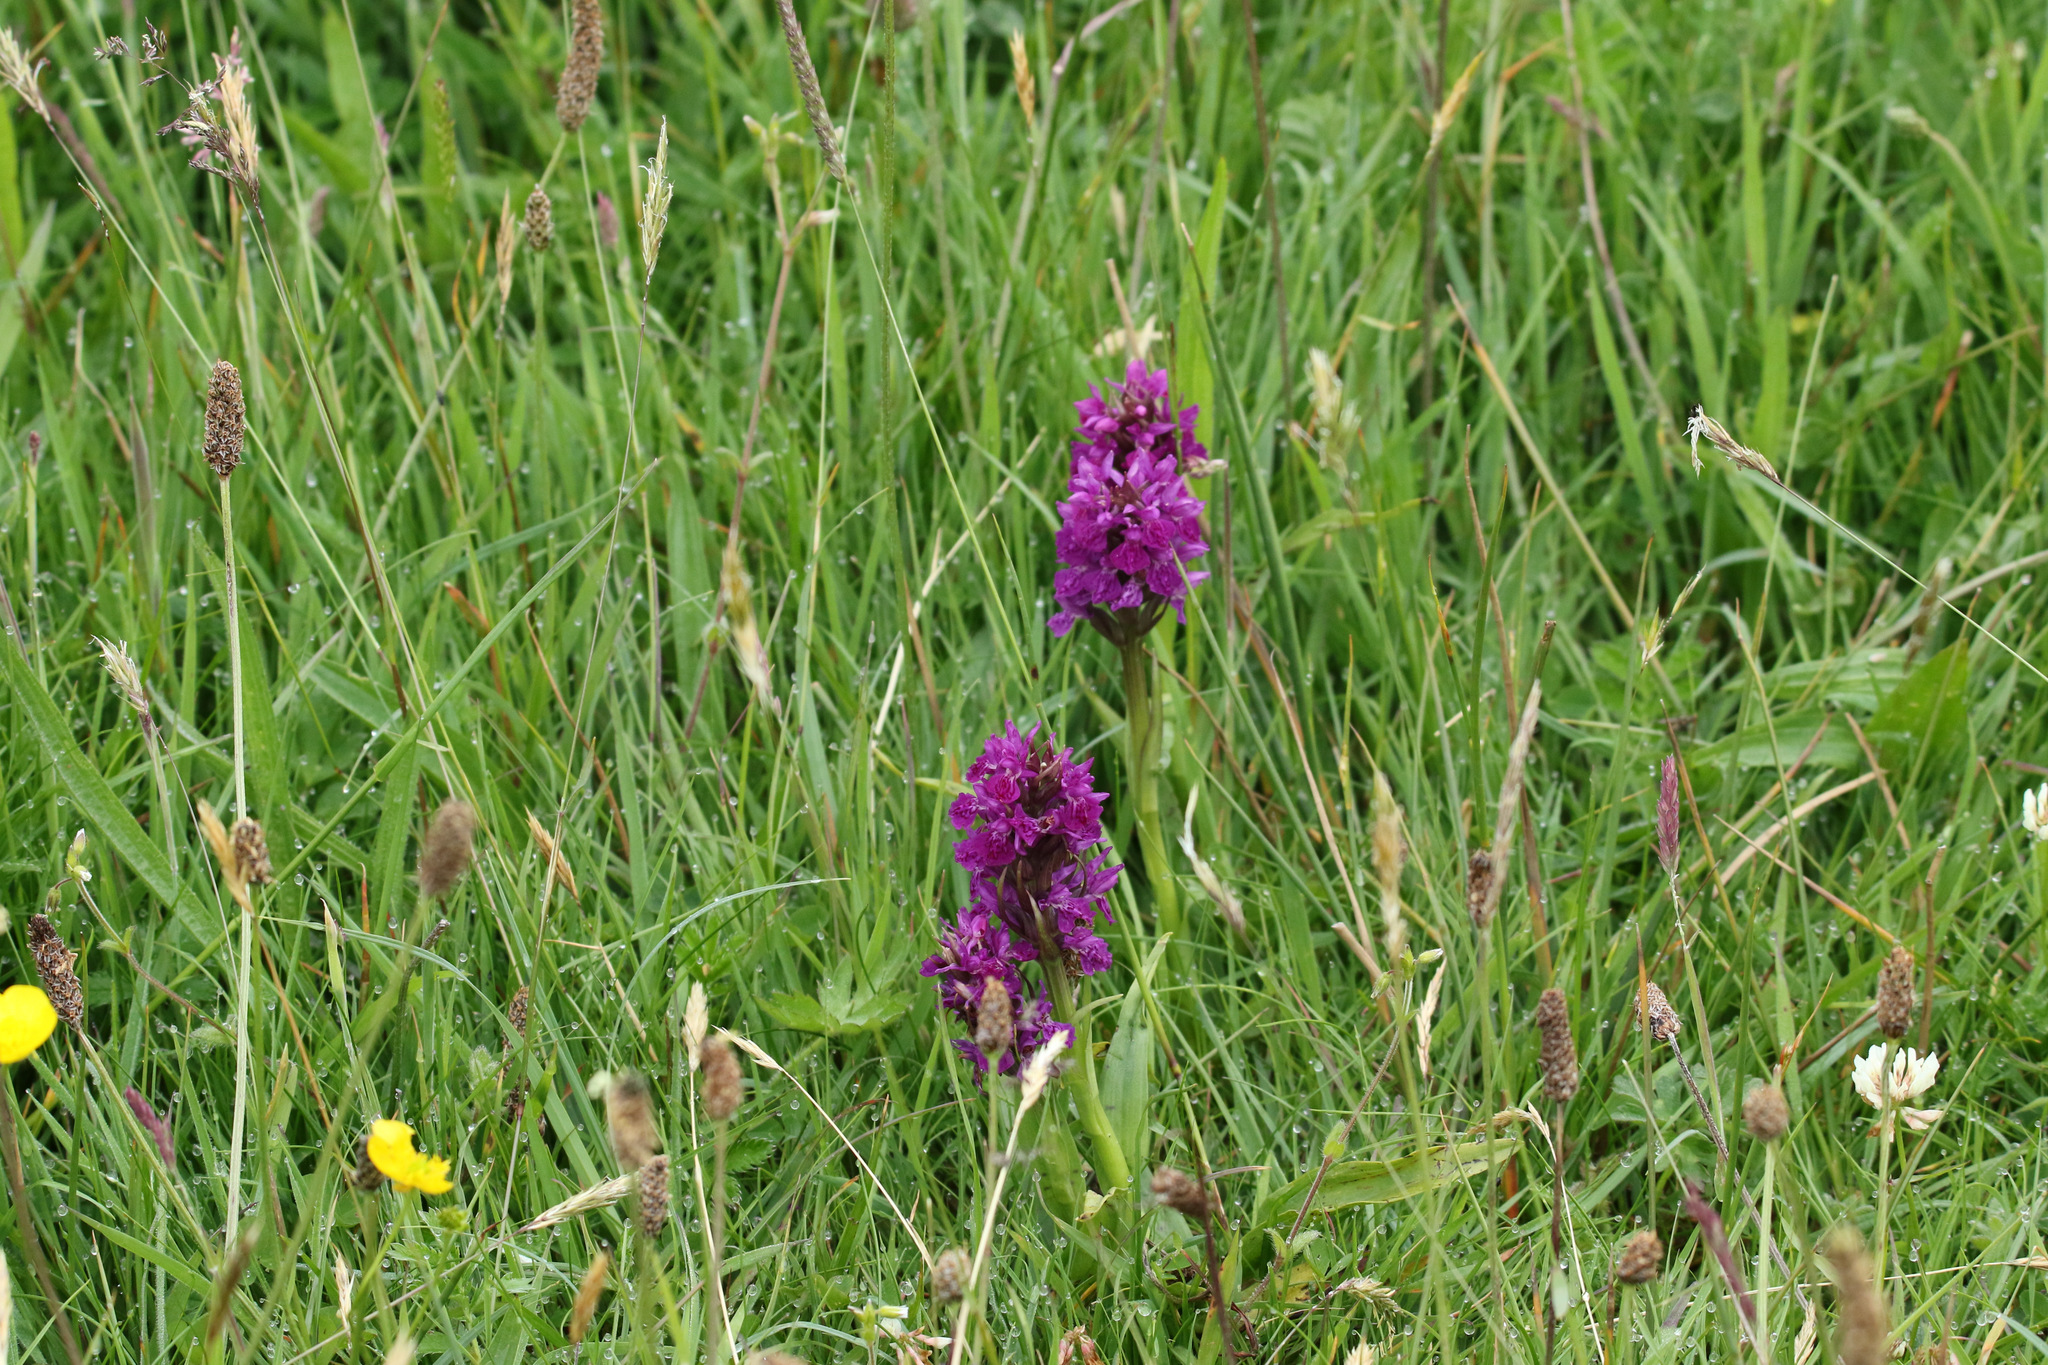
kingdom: Plantae
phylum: Tracheophyta
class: Liliopsida
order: Asparagales
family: Orchidaceae
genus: Dactylorhiza
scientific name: Dactylorhiza majalis
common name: Marsh orchid
